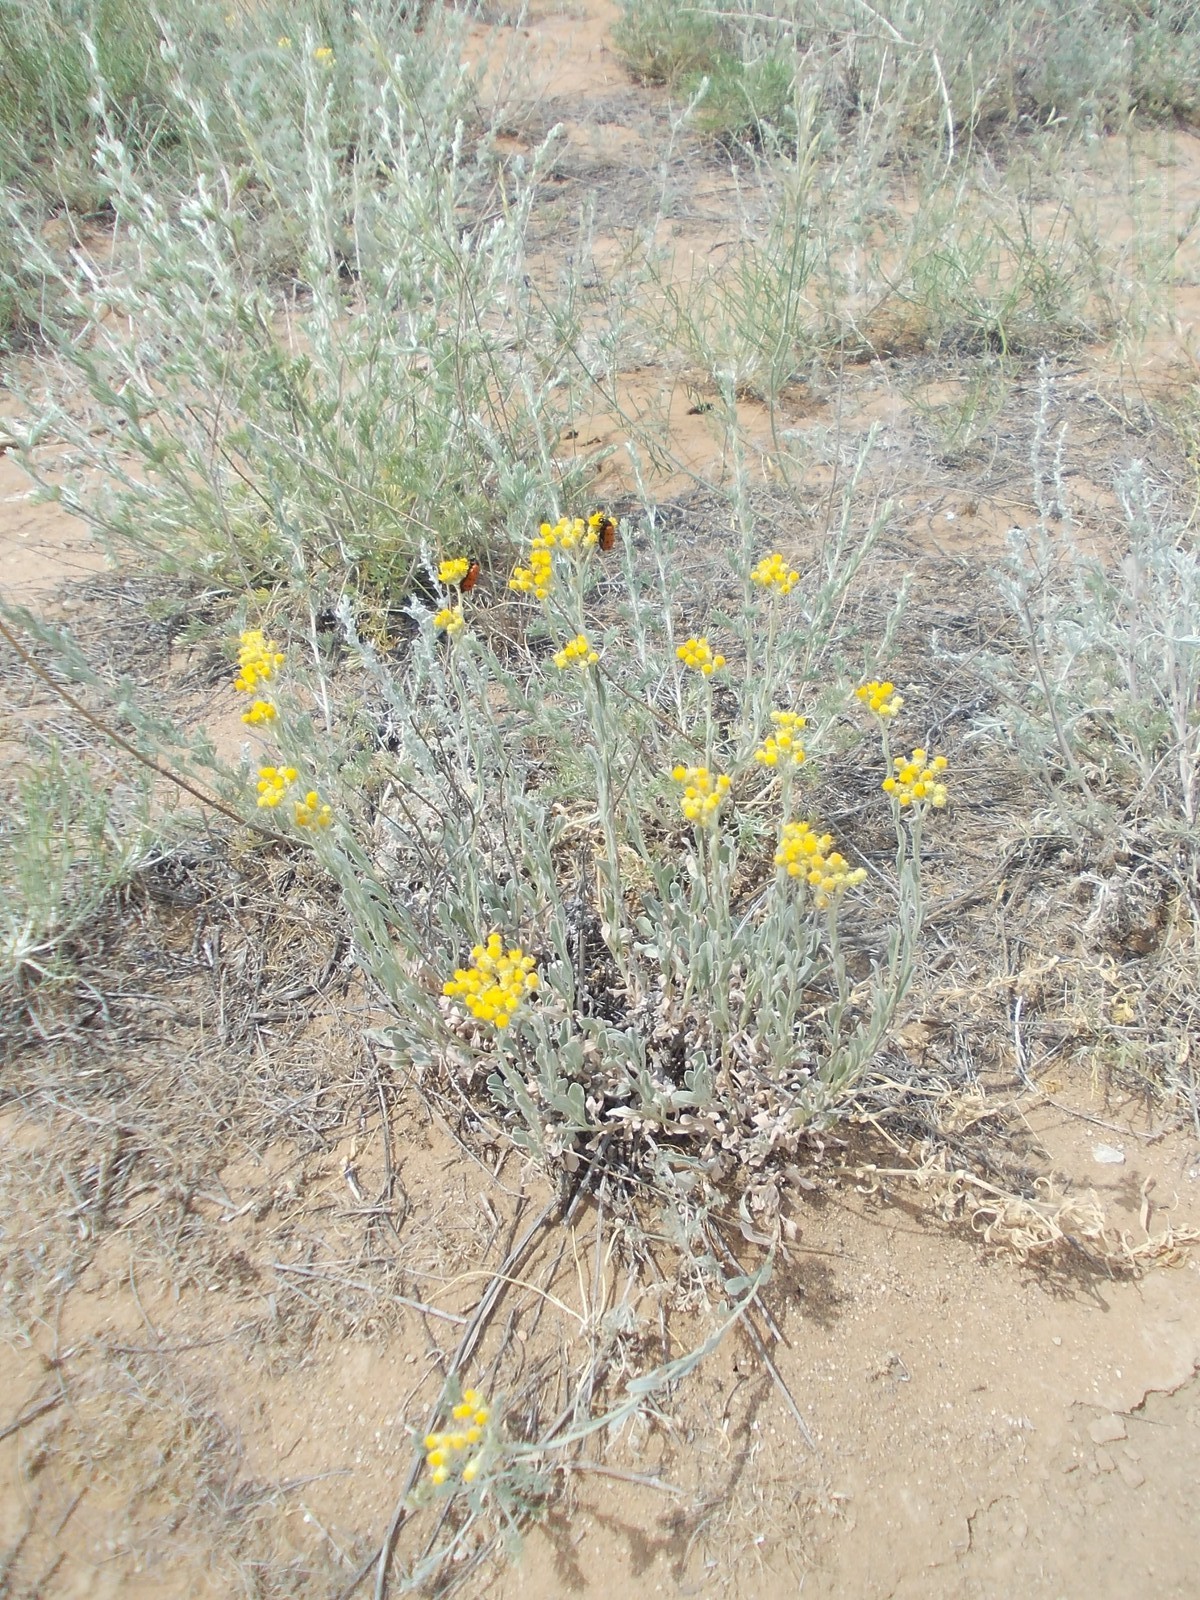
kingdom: Plantae
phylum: Tracheophyta
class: Magnoliopsida
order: Asterales
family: Asteraceae
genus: Helichrysum
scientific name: Helichrysum arenarium
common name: Strawflower
